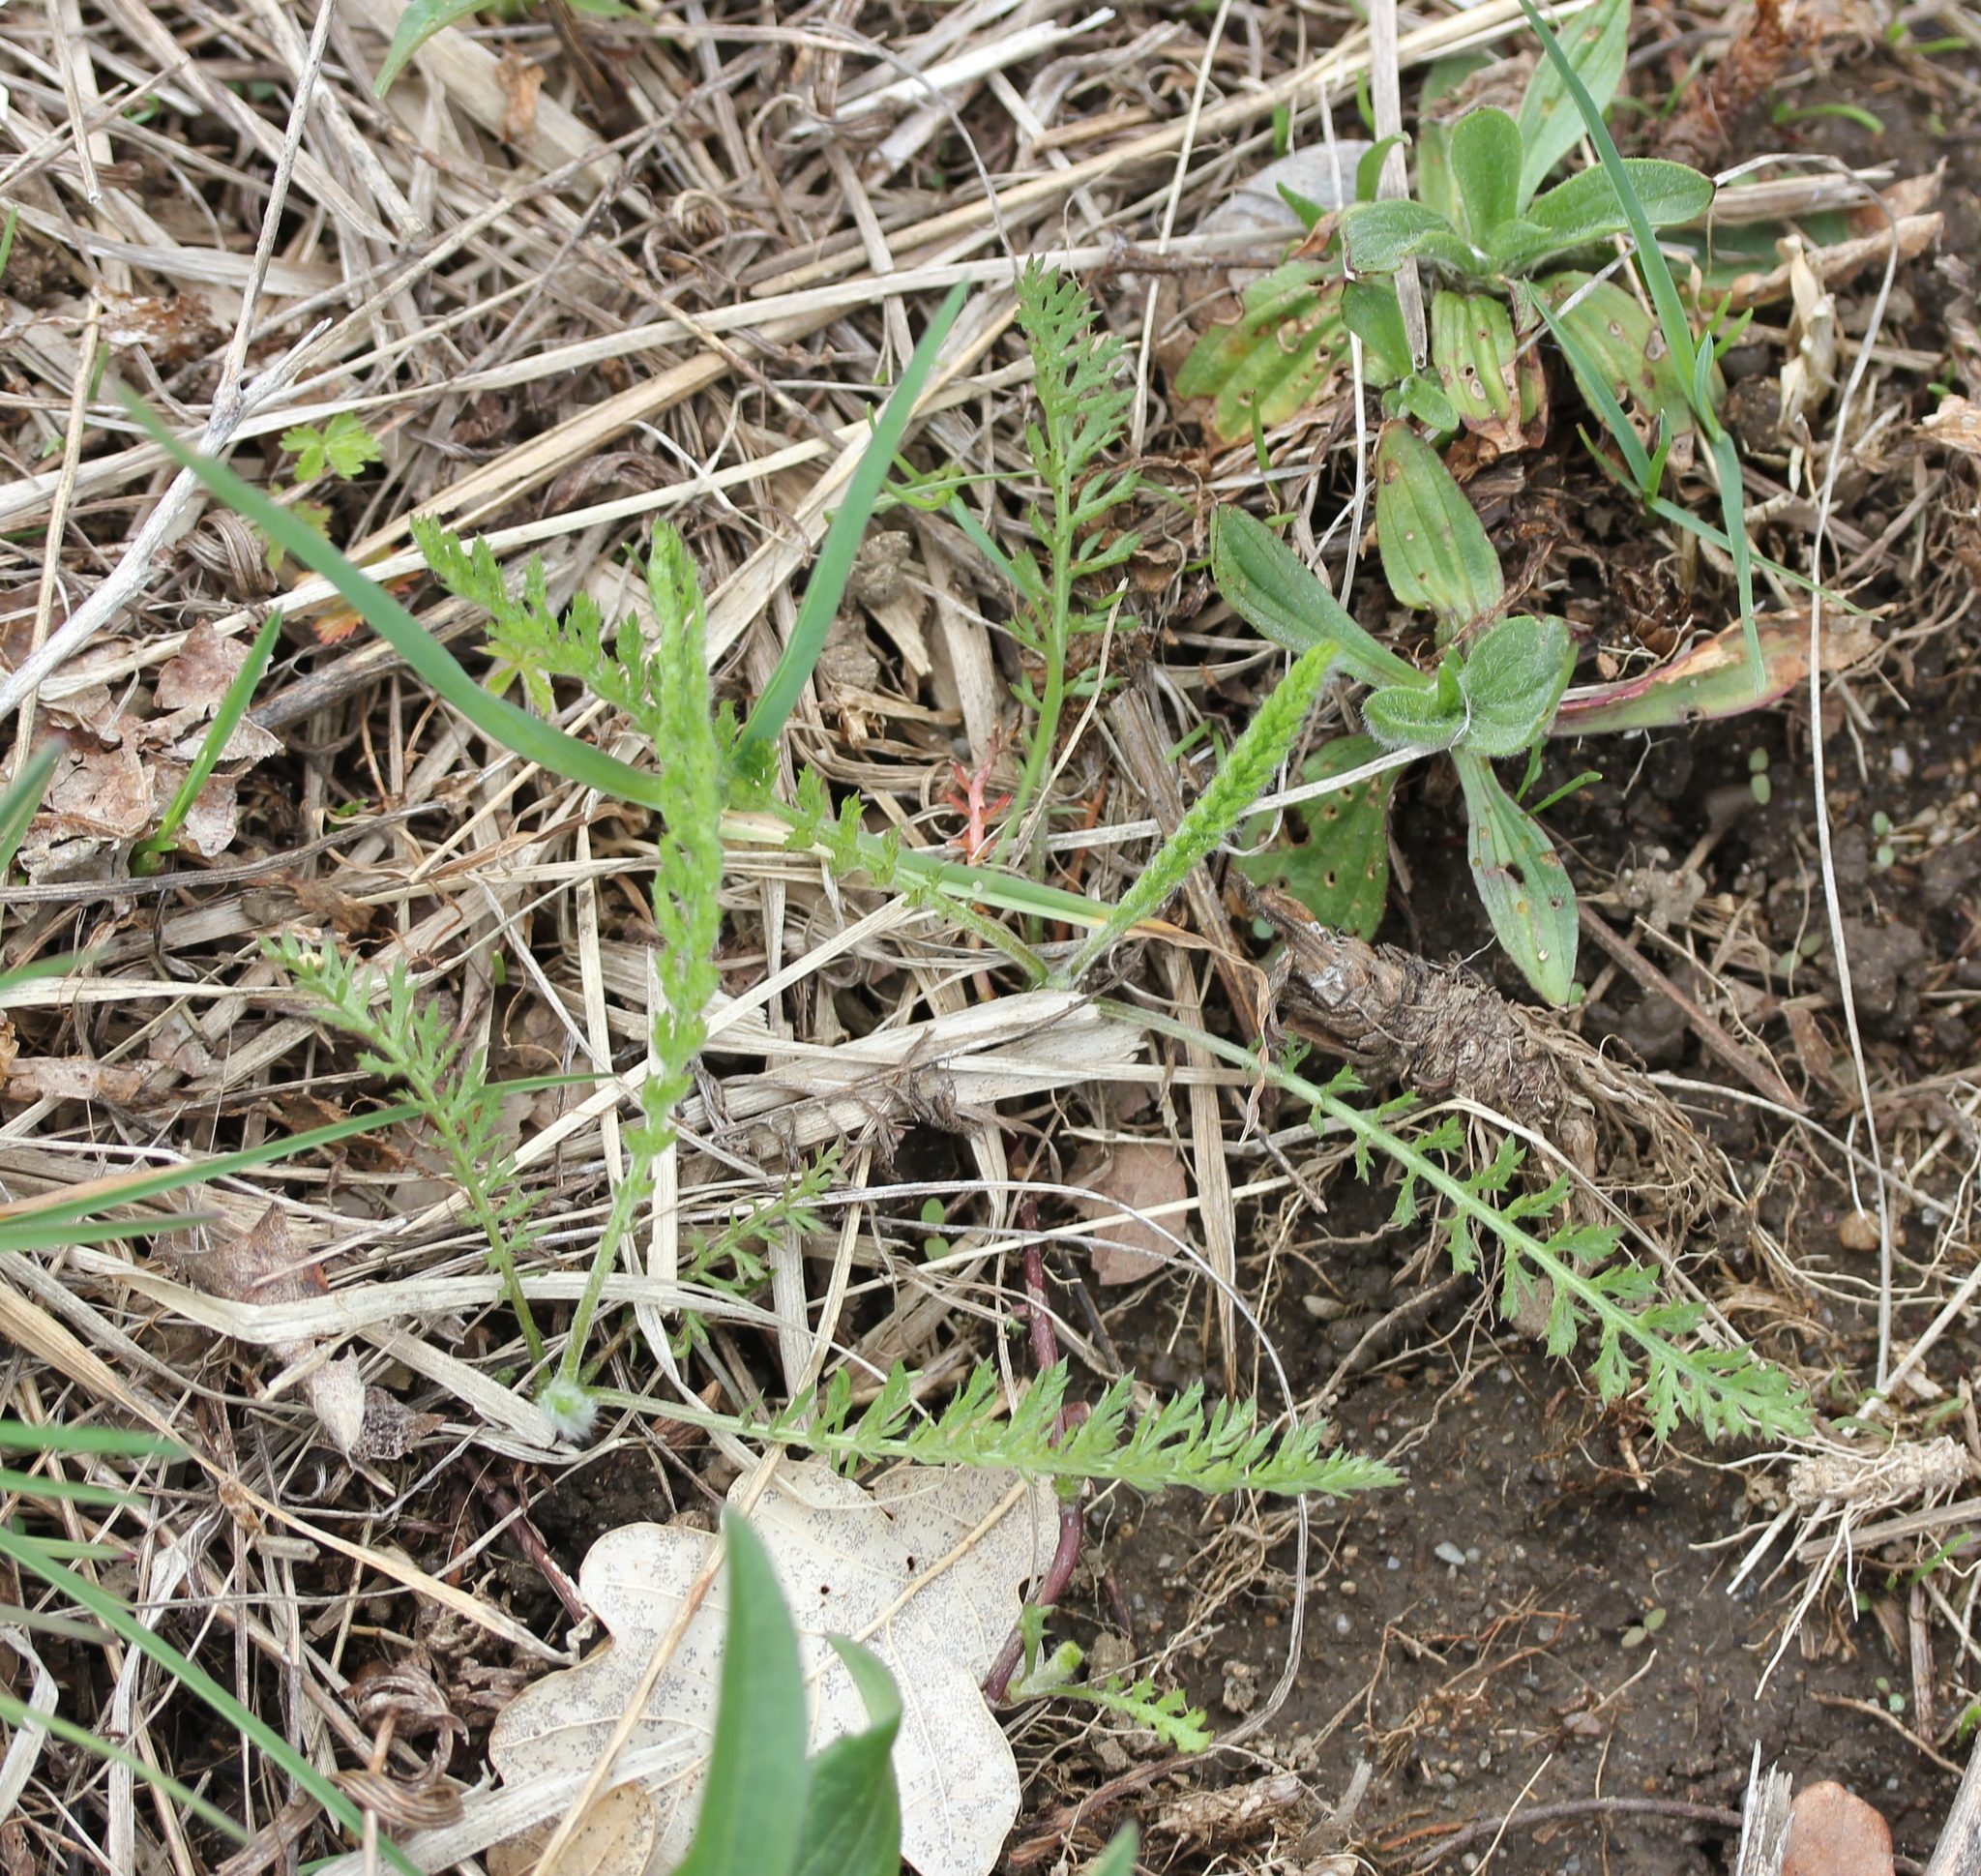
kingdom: Plantae
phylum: Tracheophyta
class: Magnoliopsida
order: Asterales
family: Asteraceae
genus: Achillea
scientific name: Achillea millefolium
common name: Yarrow
